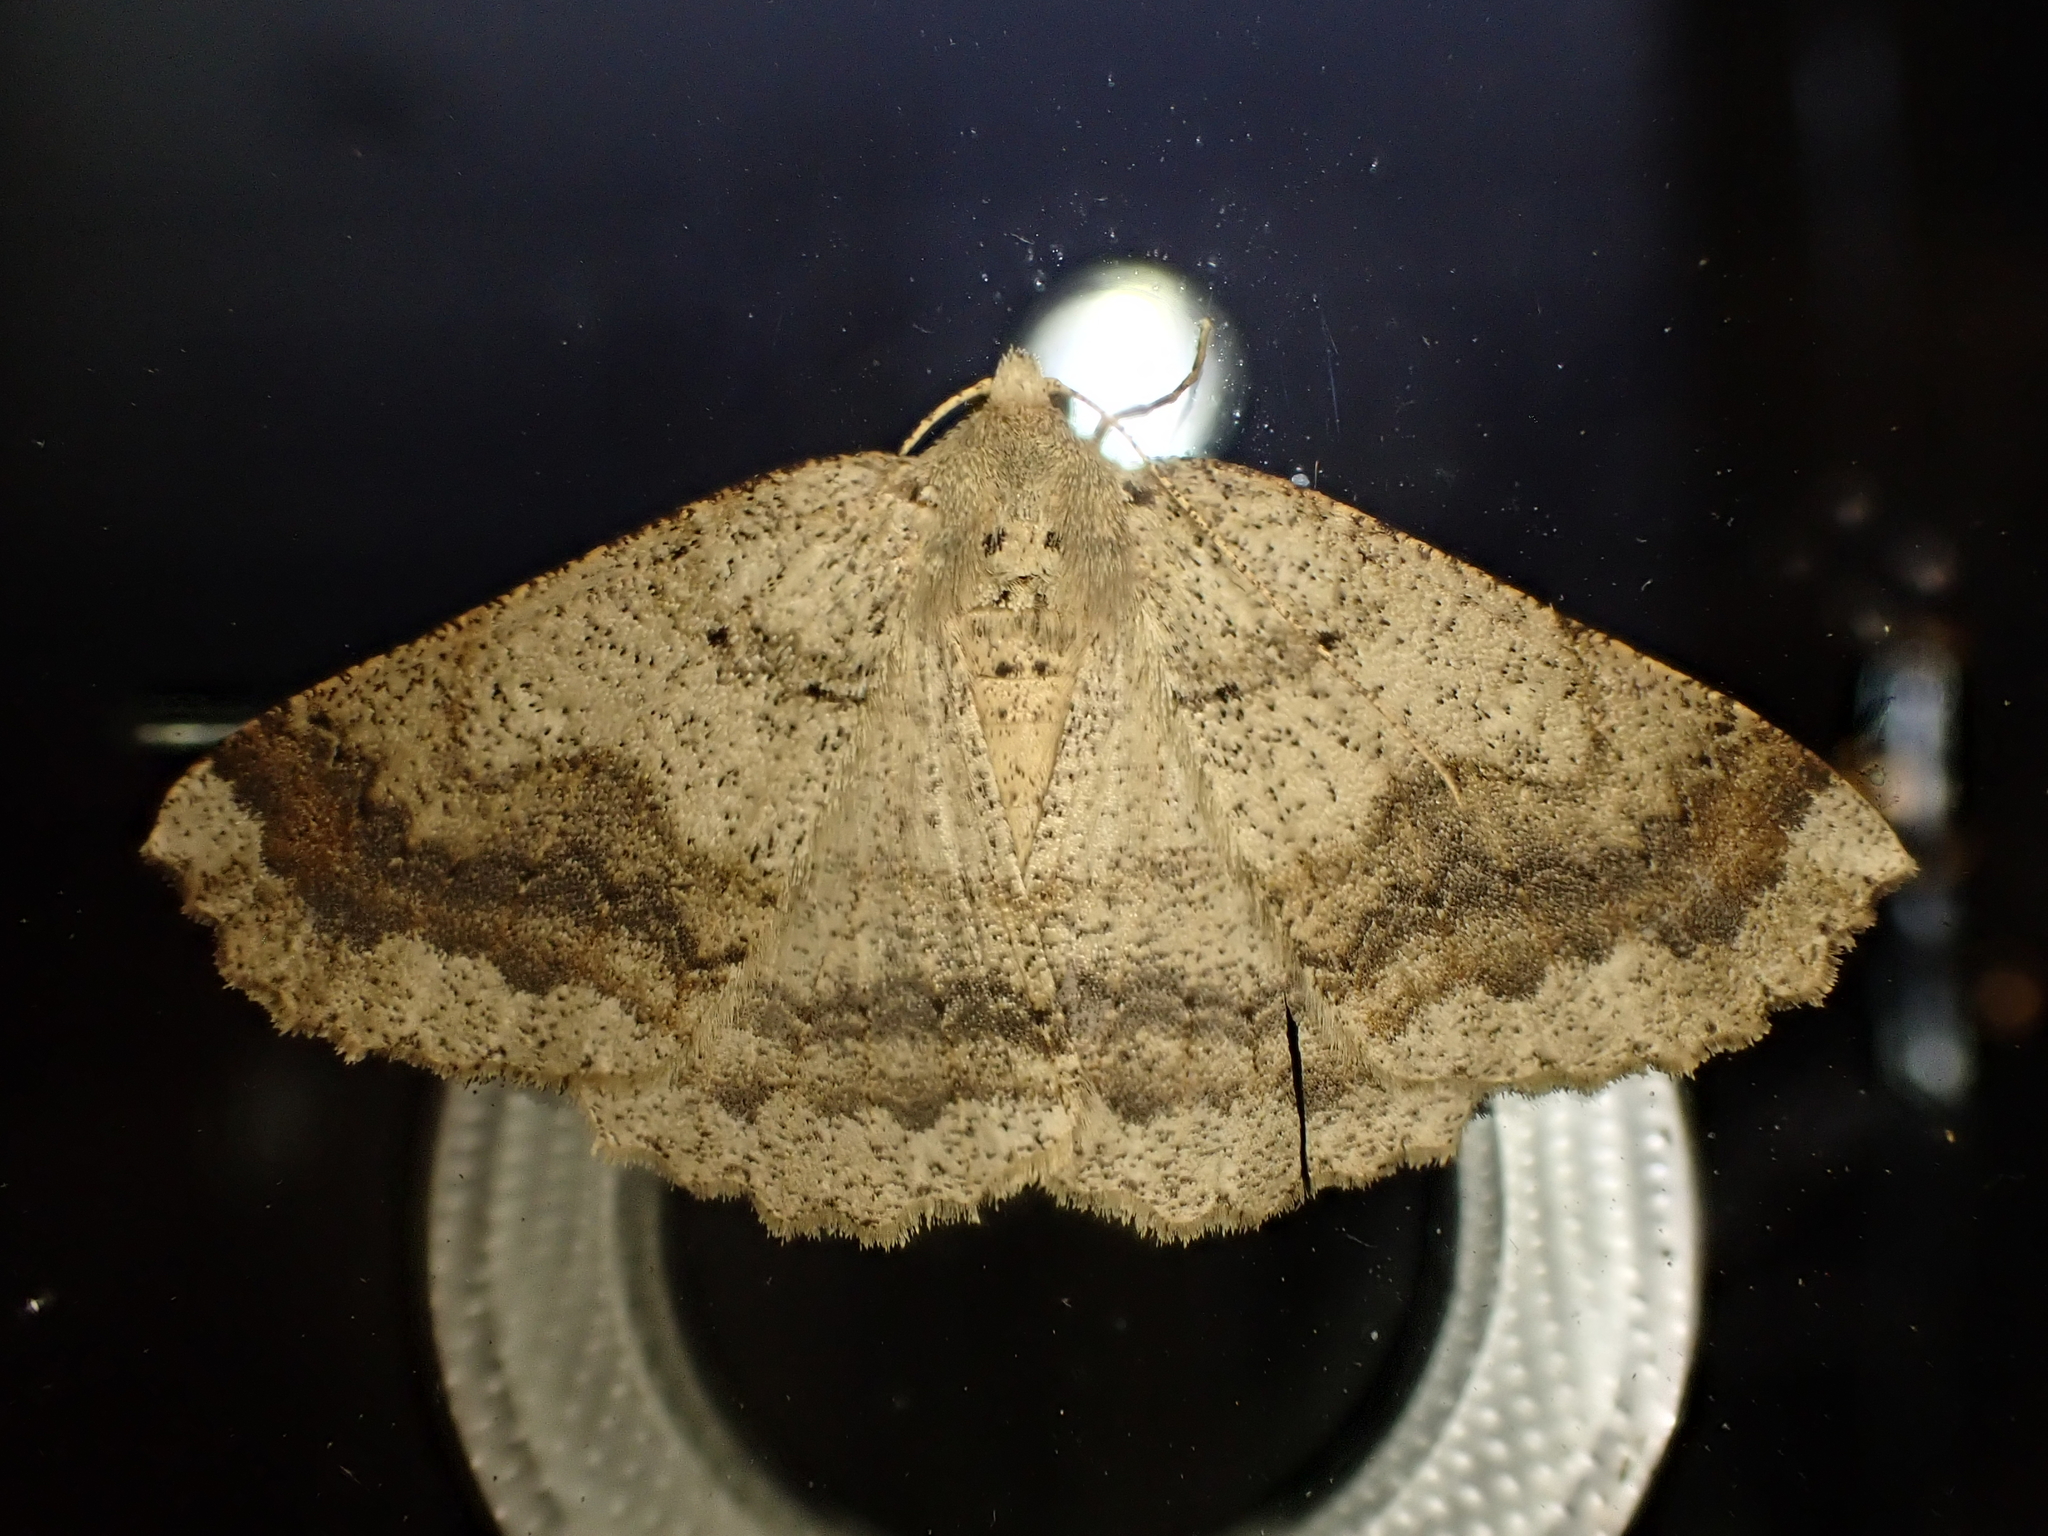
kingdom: Animalia
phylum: Arthropoda
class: Insecta
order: Lepidoptera
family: Geometridae
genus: Cleora
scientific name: Cleora scriptaria
